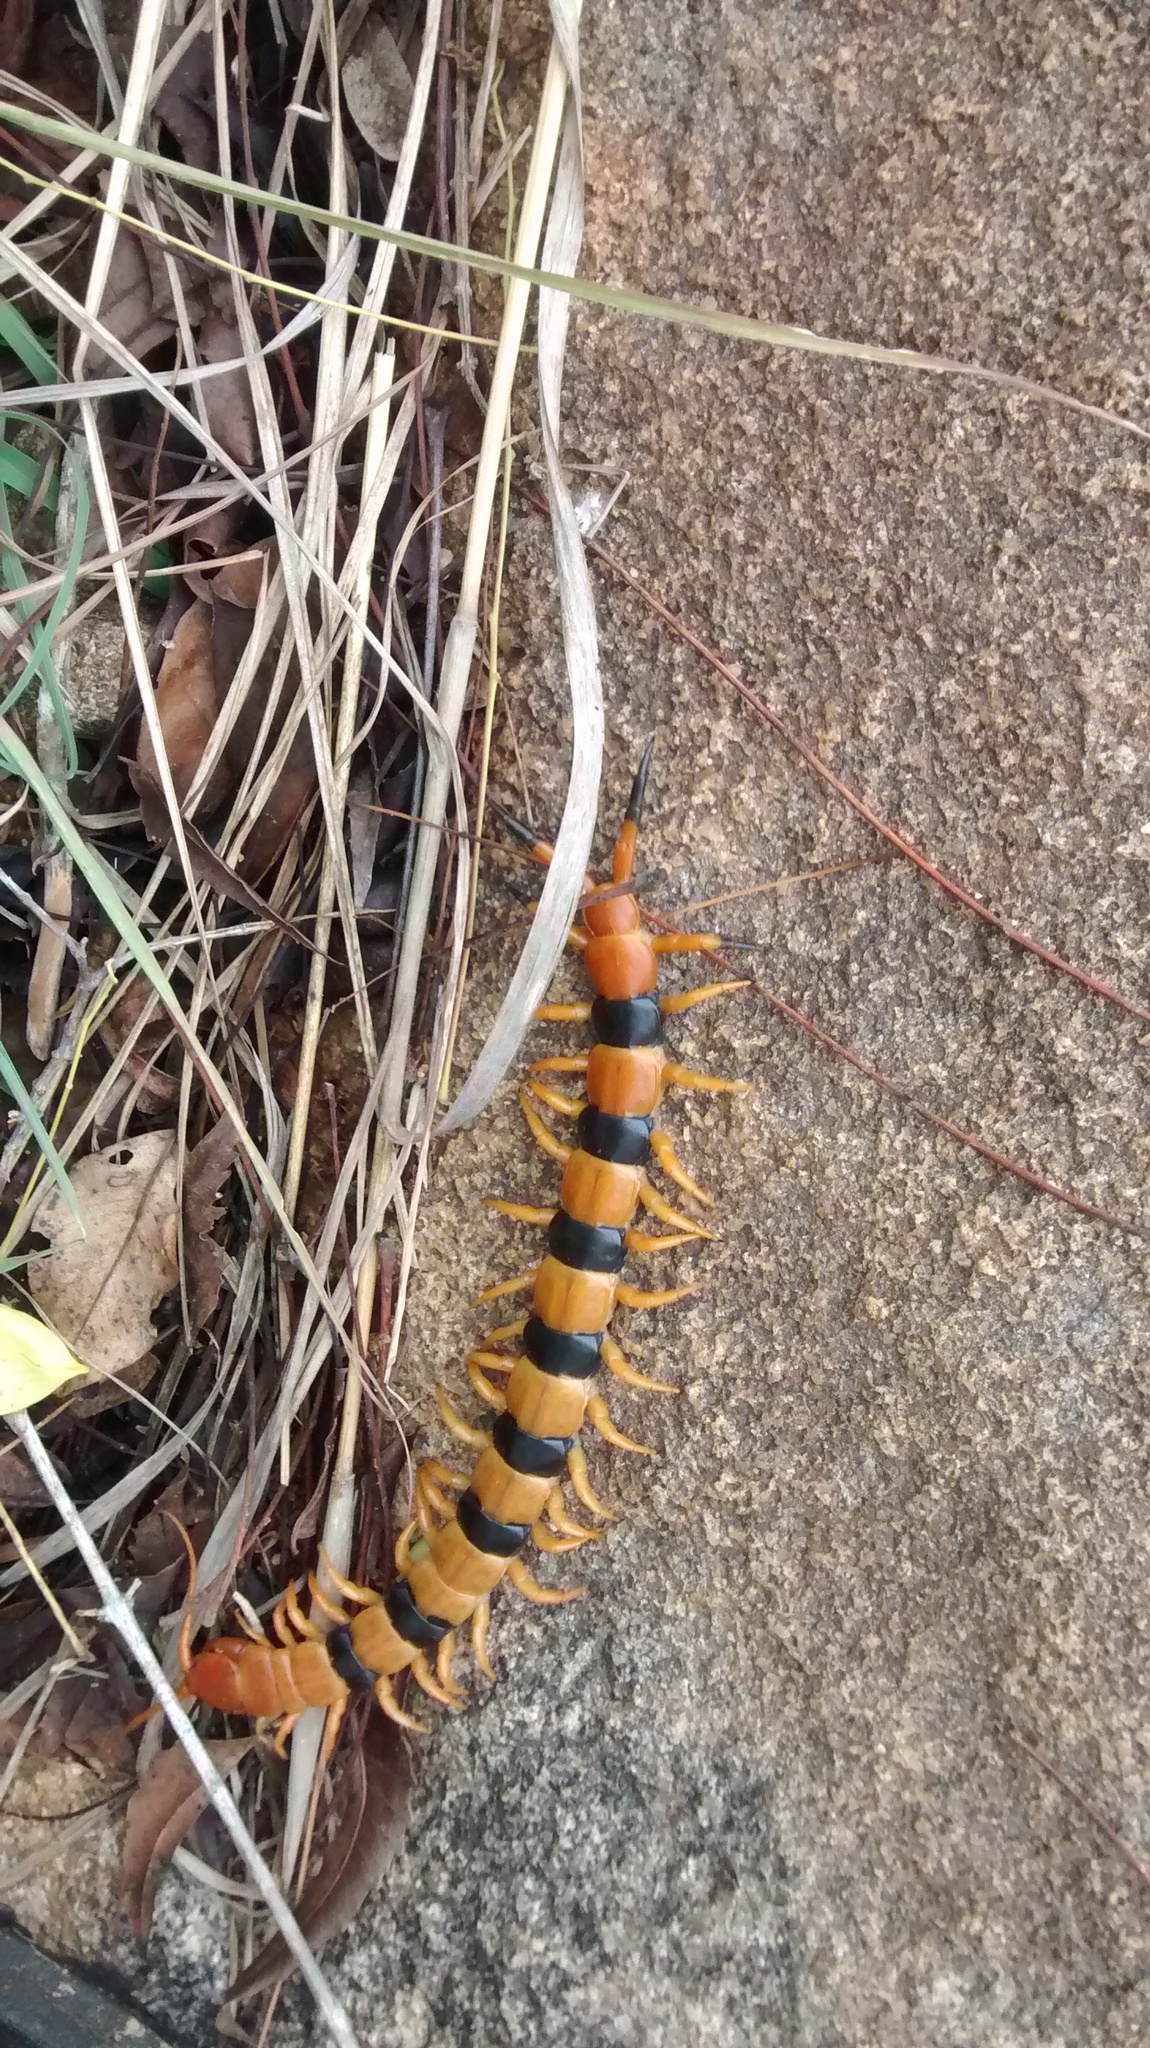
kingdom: Animalia
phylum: Arthropoda
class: Chilopoda
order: Scolopendromorpha
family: Scolopendridae
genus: Scolopendra
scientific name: Scolopendra hardwickei
